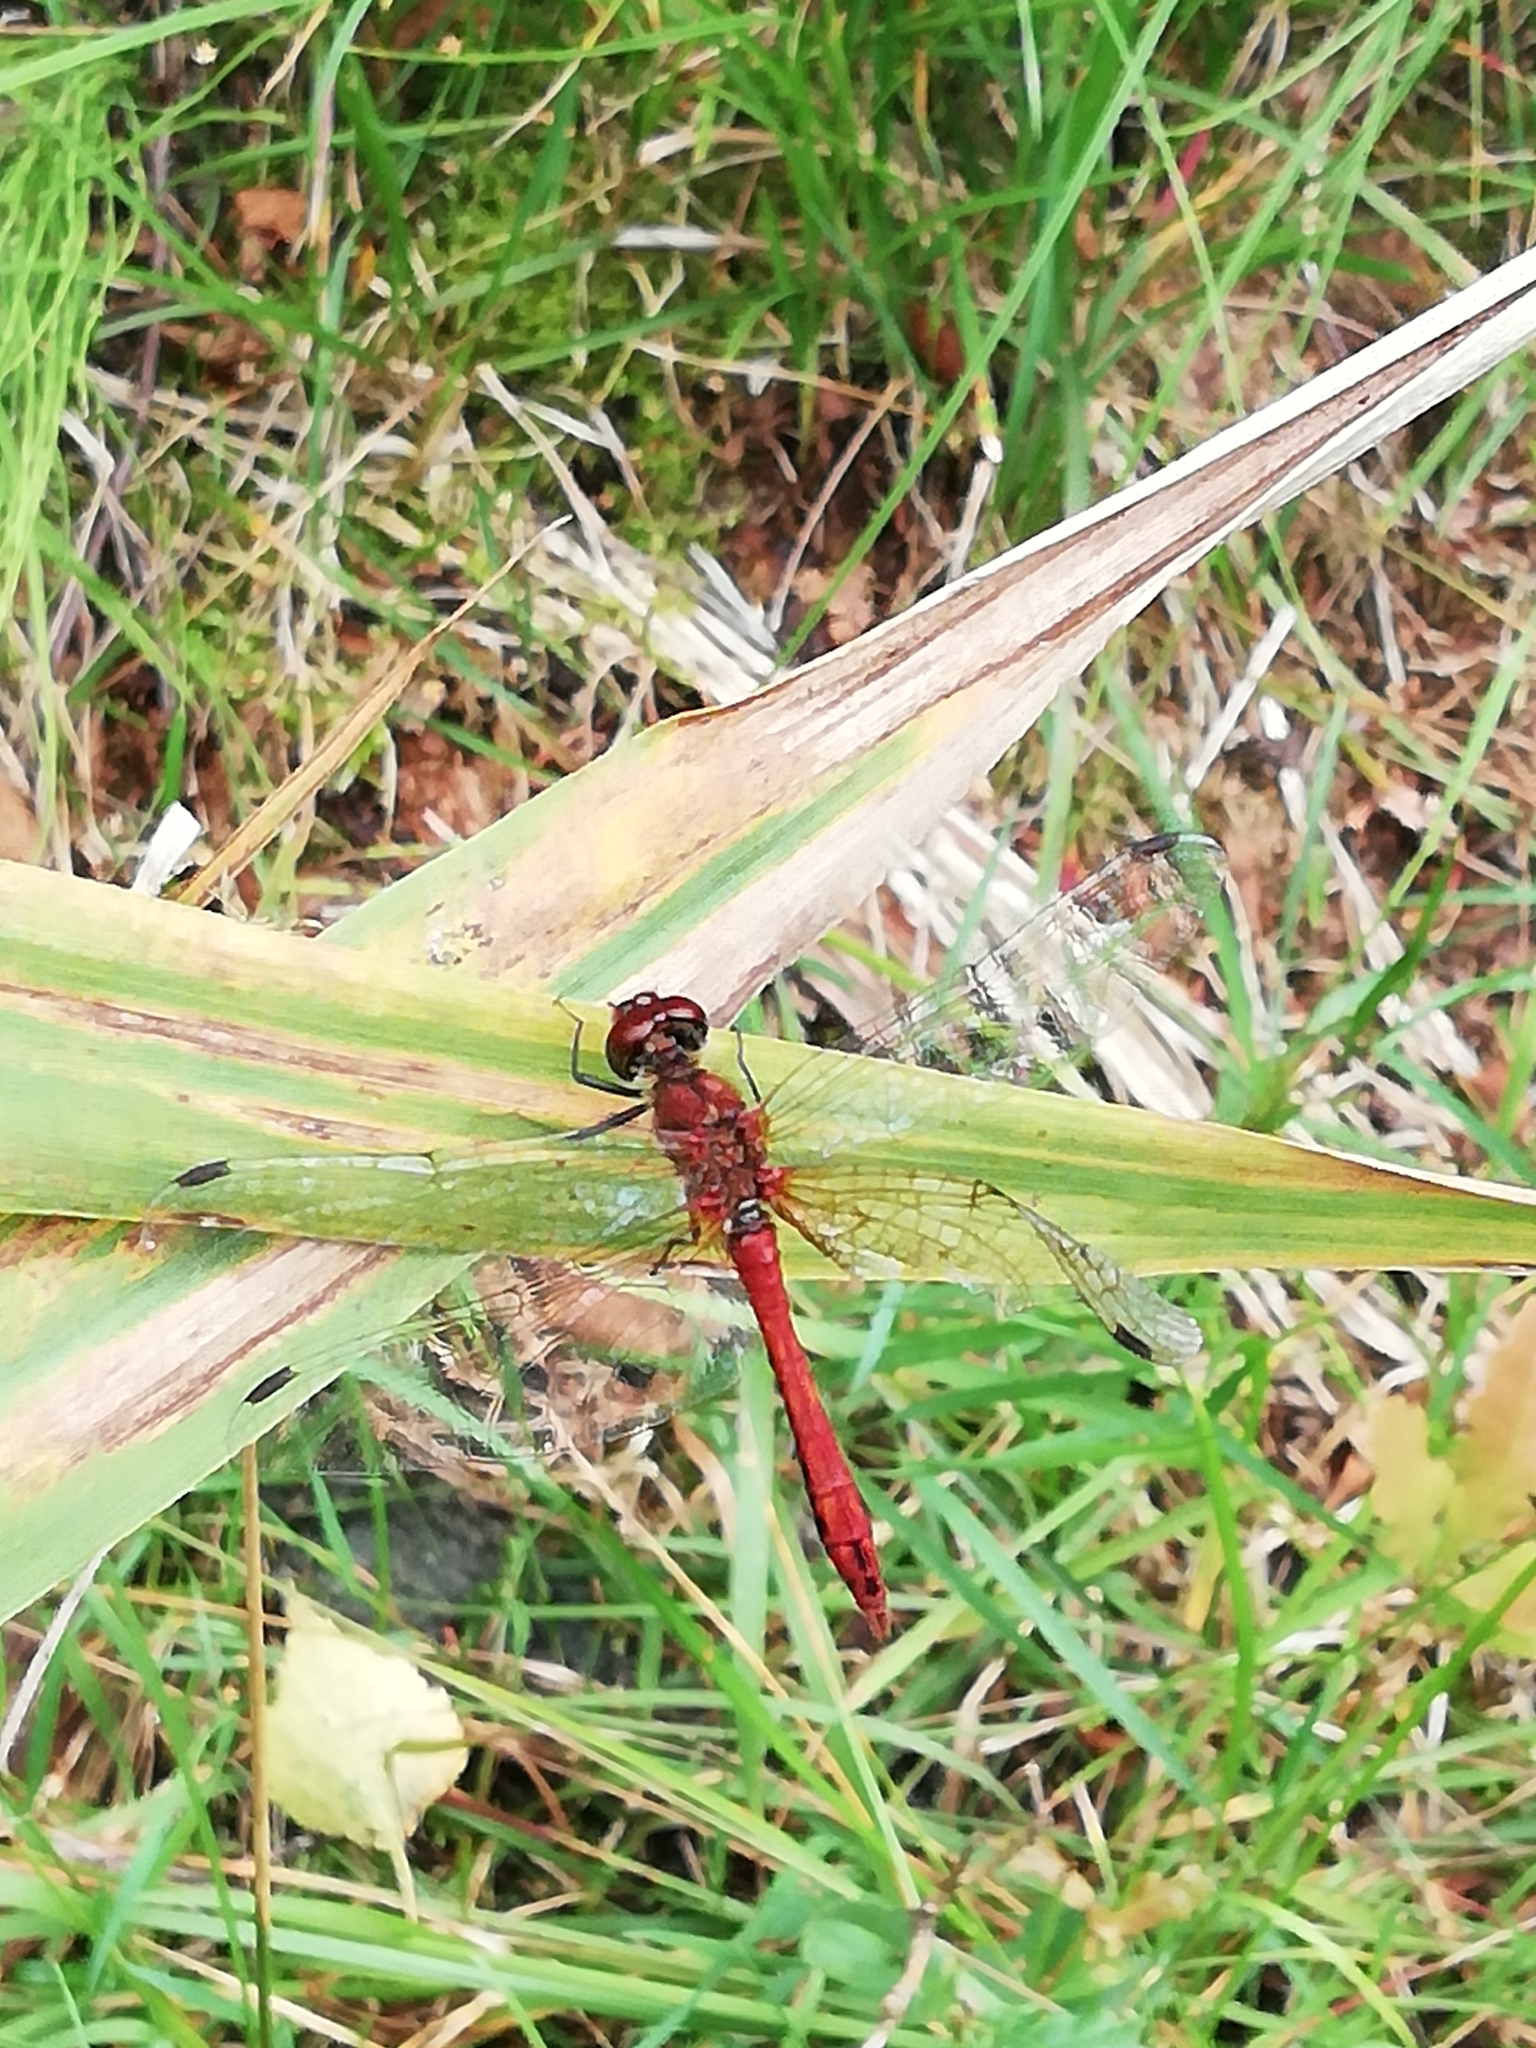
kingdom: Animalia
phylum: Arthropoda
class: Insecta
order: Odonata
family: Libellulidae
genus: Sympetrum
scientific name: Sympetrum sanguineum
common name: Ruddy darter
